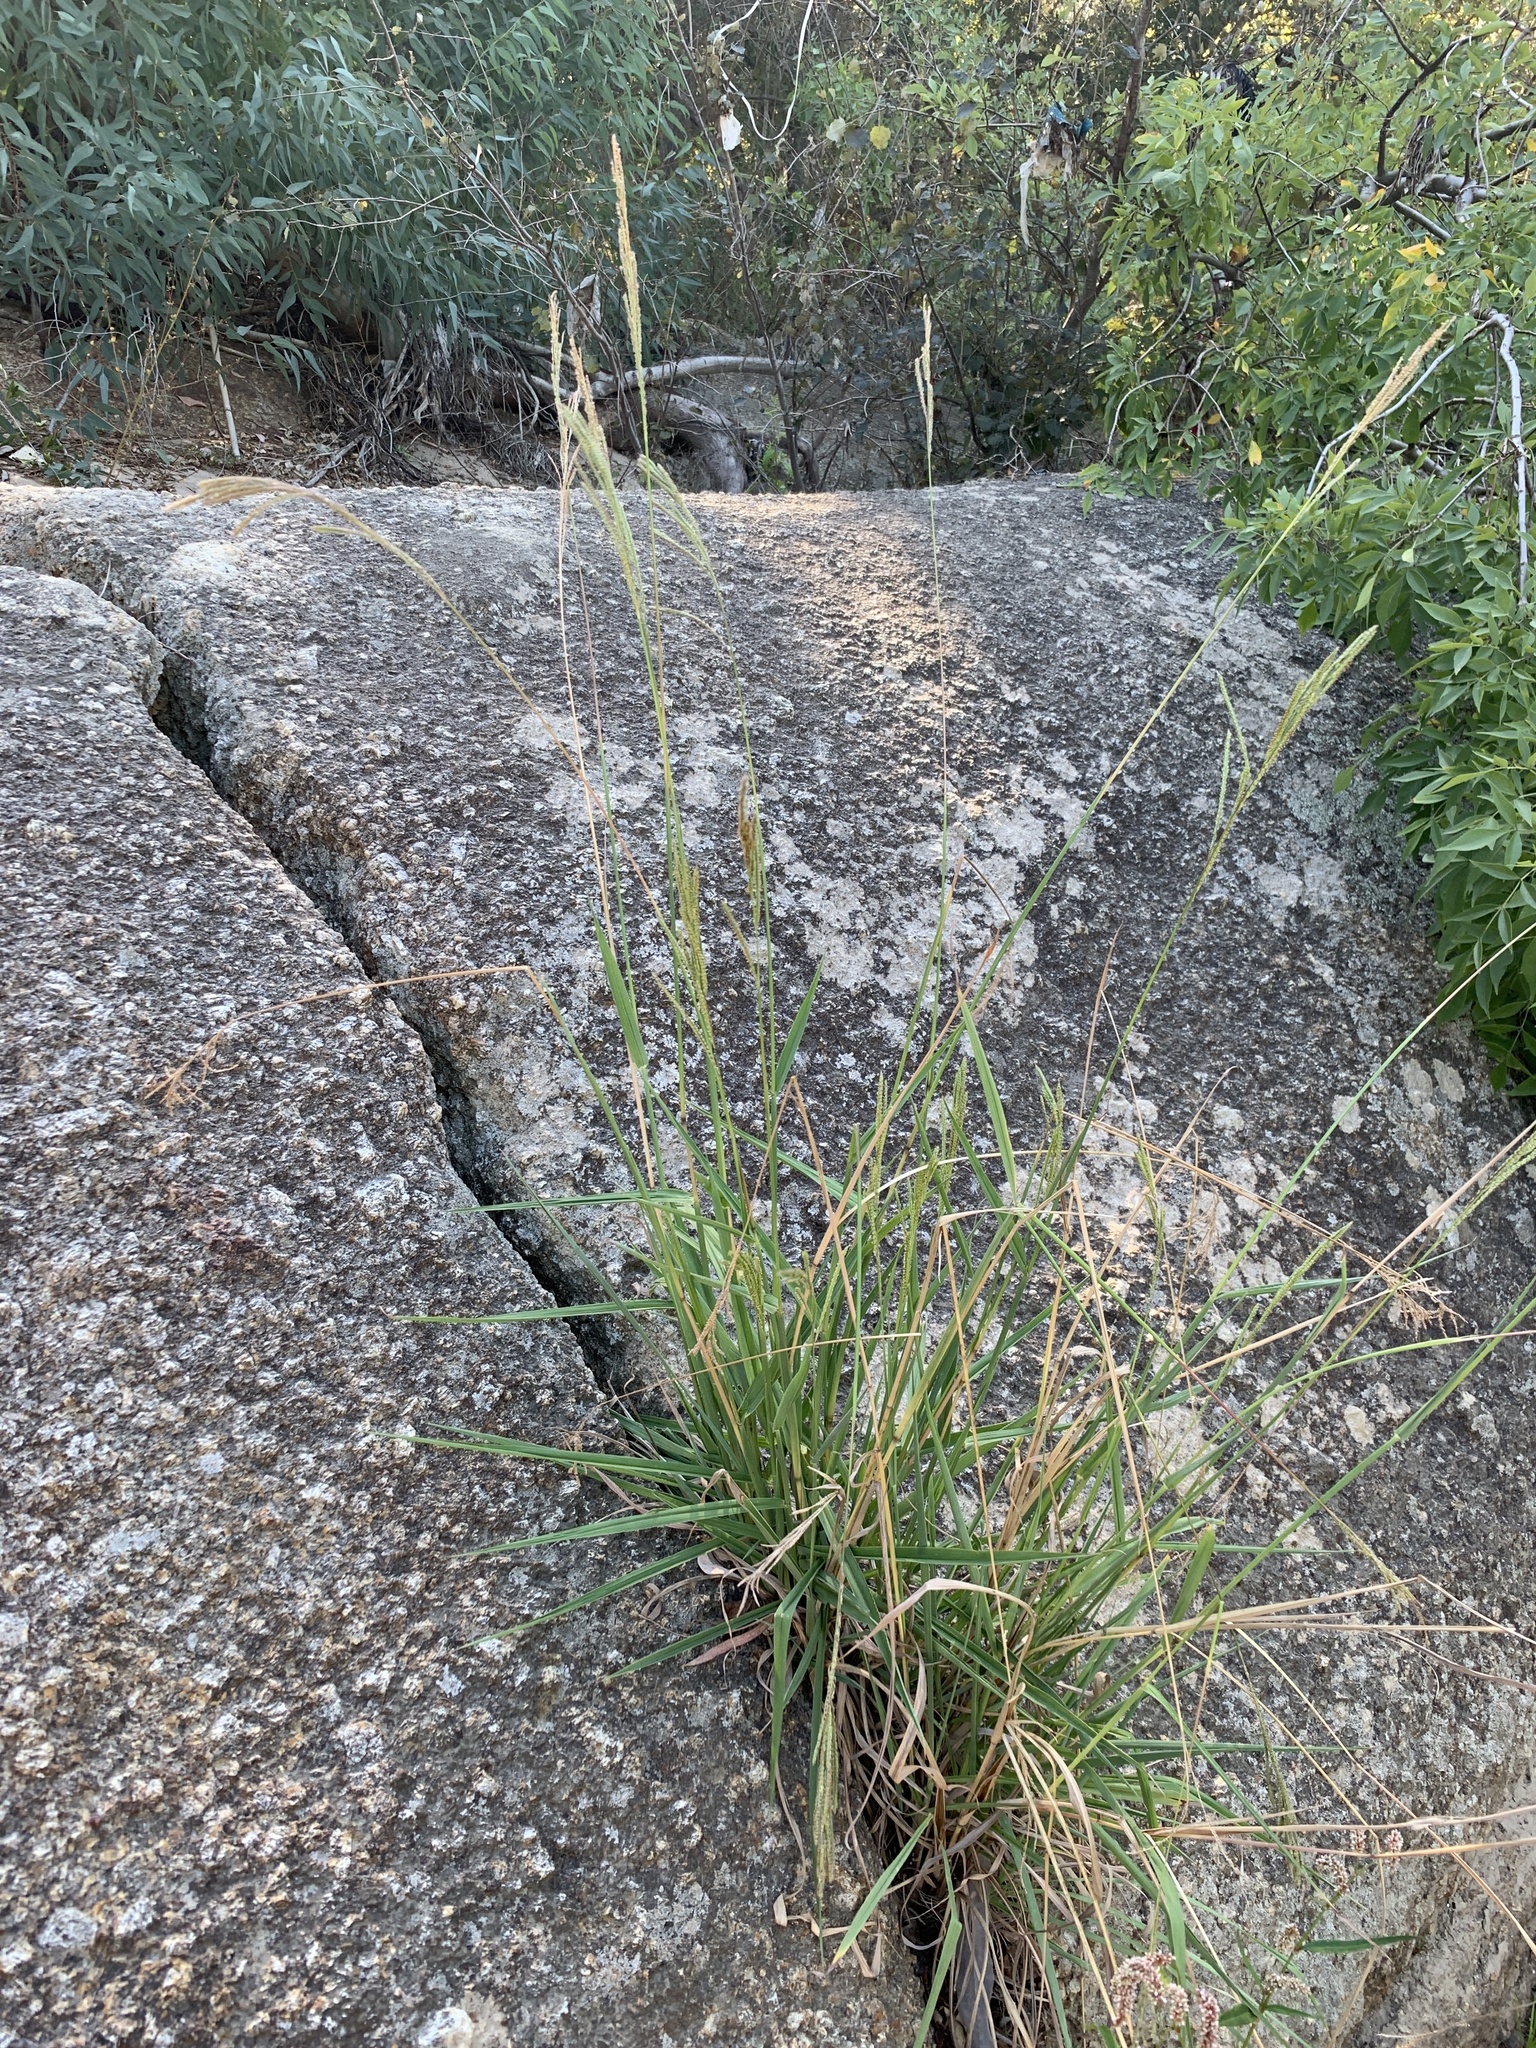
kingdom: Plantae
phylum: Tracheophyta
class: Liliopsida
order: Poales
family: Poaceae
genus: Paspalum
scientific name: Paspalum urvillei
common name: Vasey's grass
